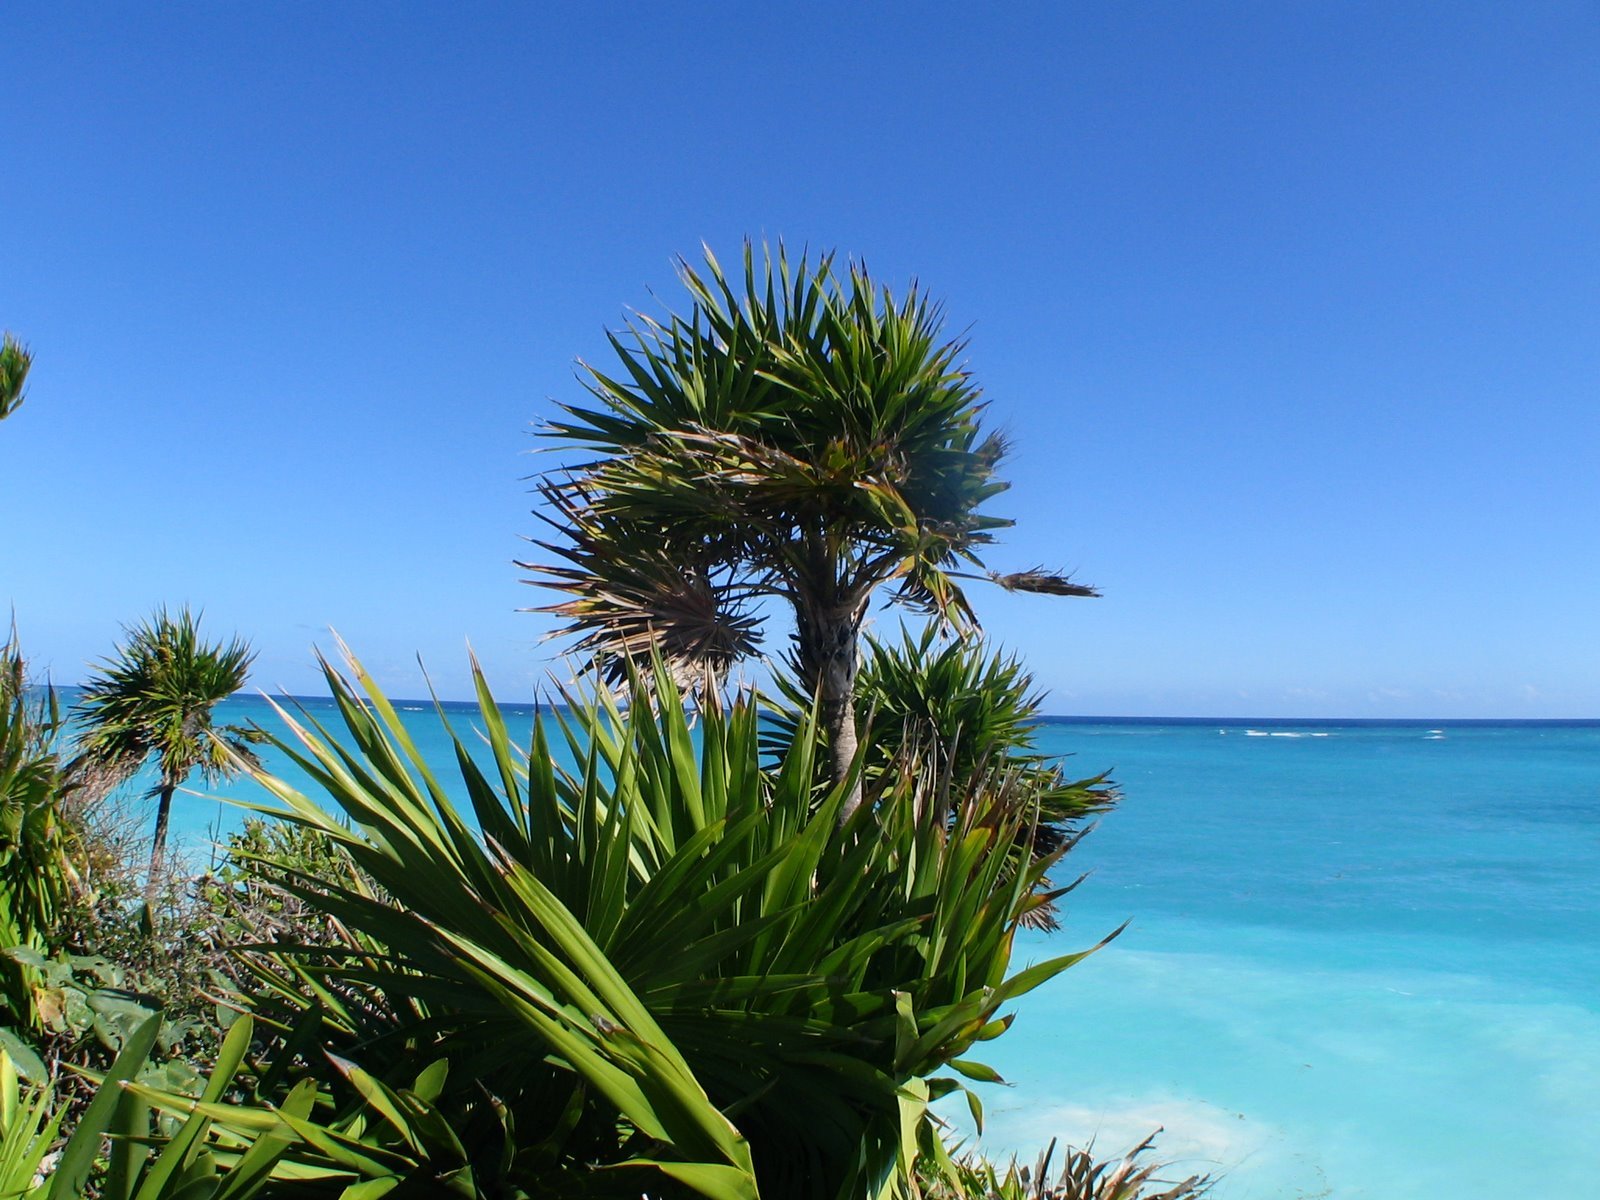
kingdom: Plantae
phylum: Tracheophyta
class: Liliopsida
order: Arecales
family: Arecaceae
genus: Thrinax
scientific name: Thrinax radiata
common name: Florida thatch
